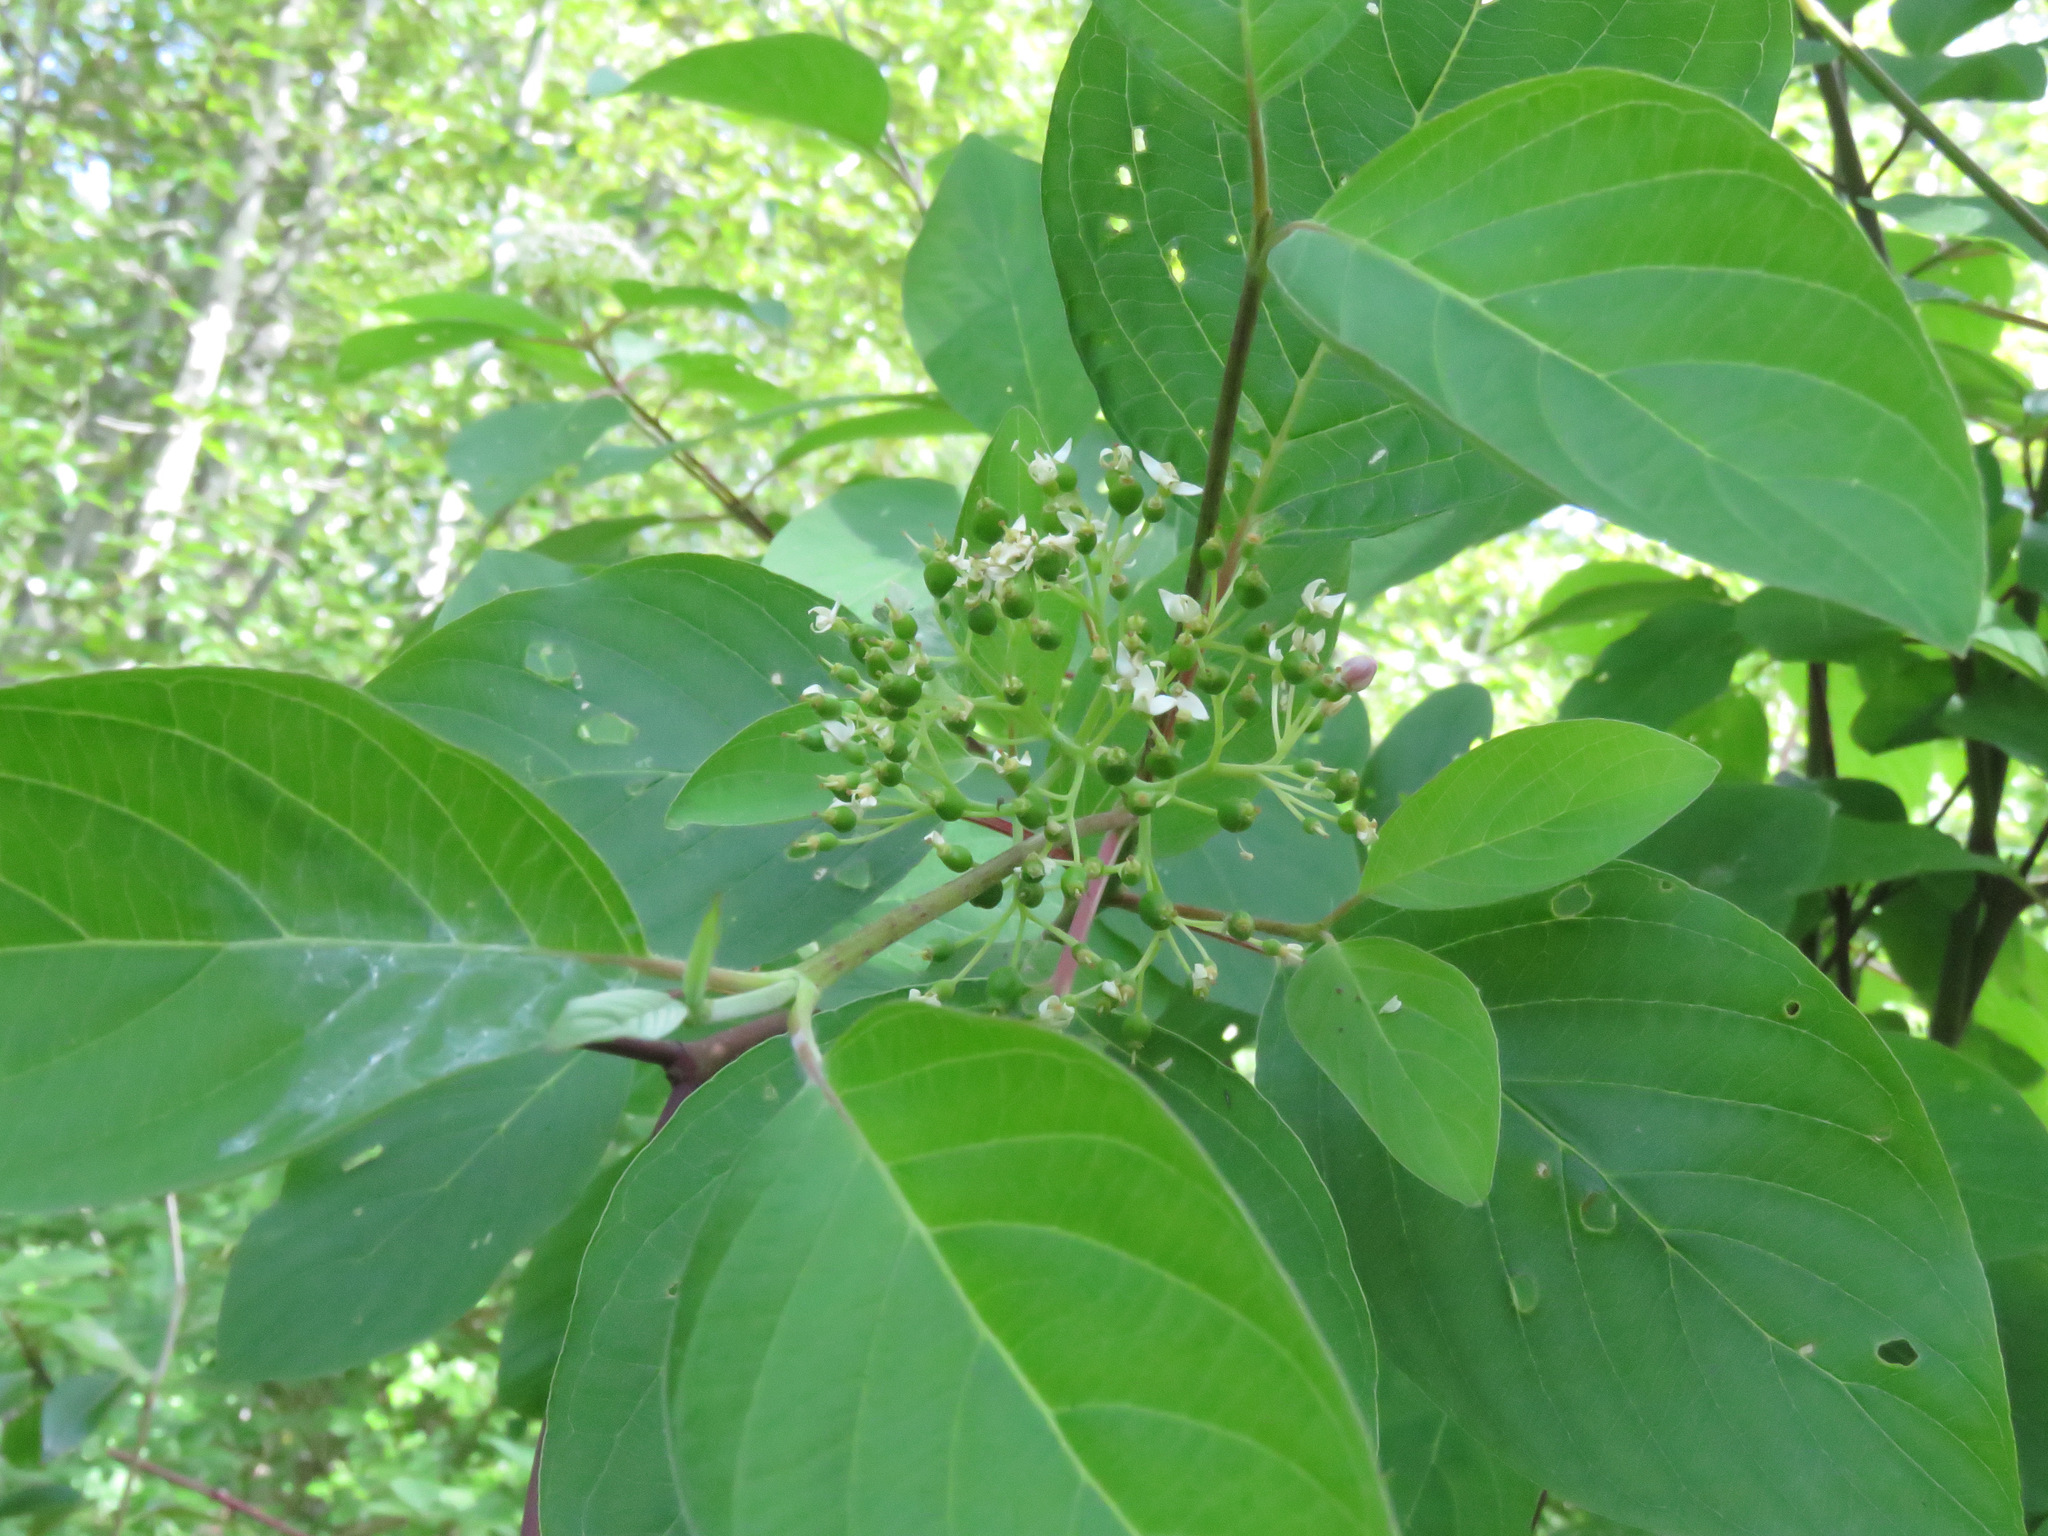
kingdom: Plantae
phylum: Tracheophyta
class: Magnoliopsida
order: Cornales
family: Cornaceae
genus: Cornus
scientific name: Cornus sericea
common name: Red-osier dogwood
